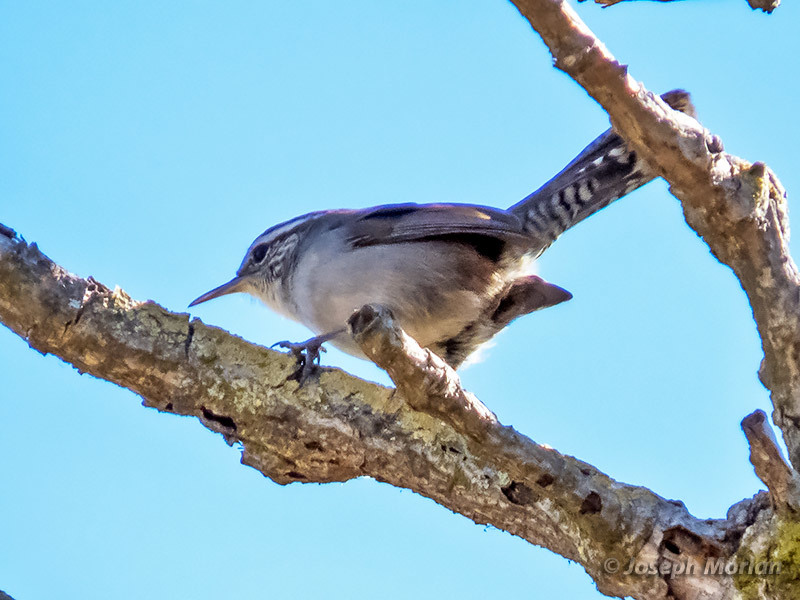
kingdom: Animalia
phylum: Chordata
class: Aves
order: Passeriformes
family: Troglodytidae
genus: Thryomanes
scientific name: Thryomanes bewickii
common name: Bewick's wren
